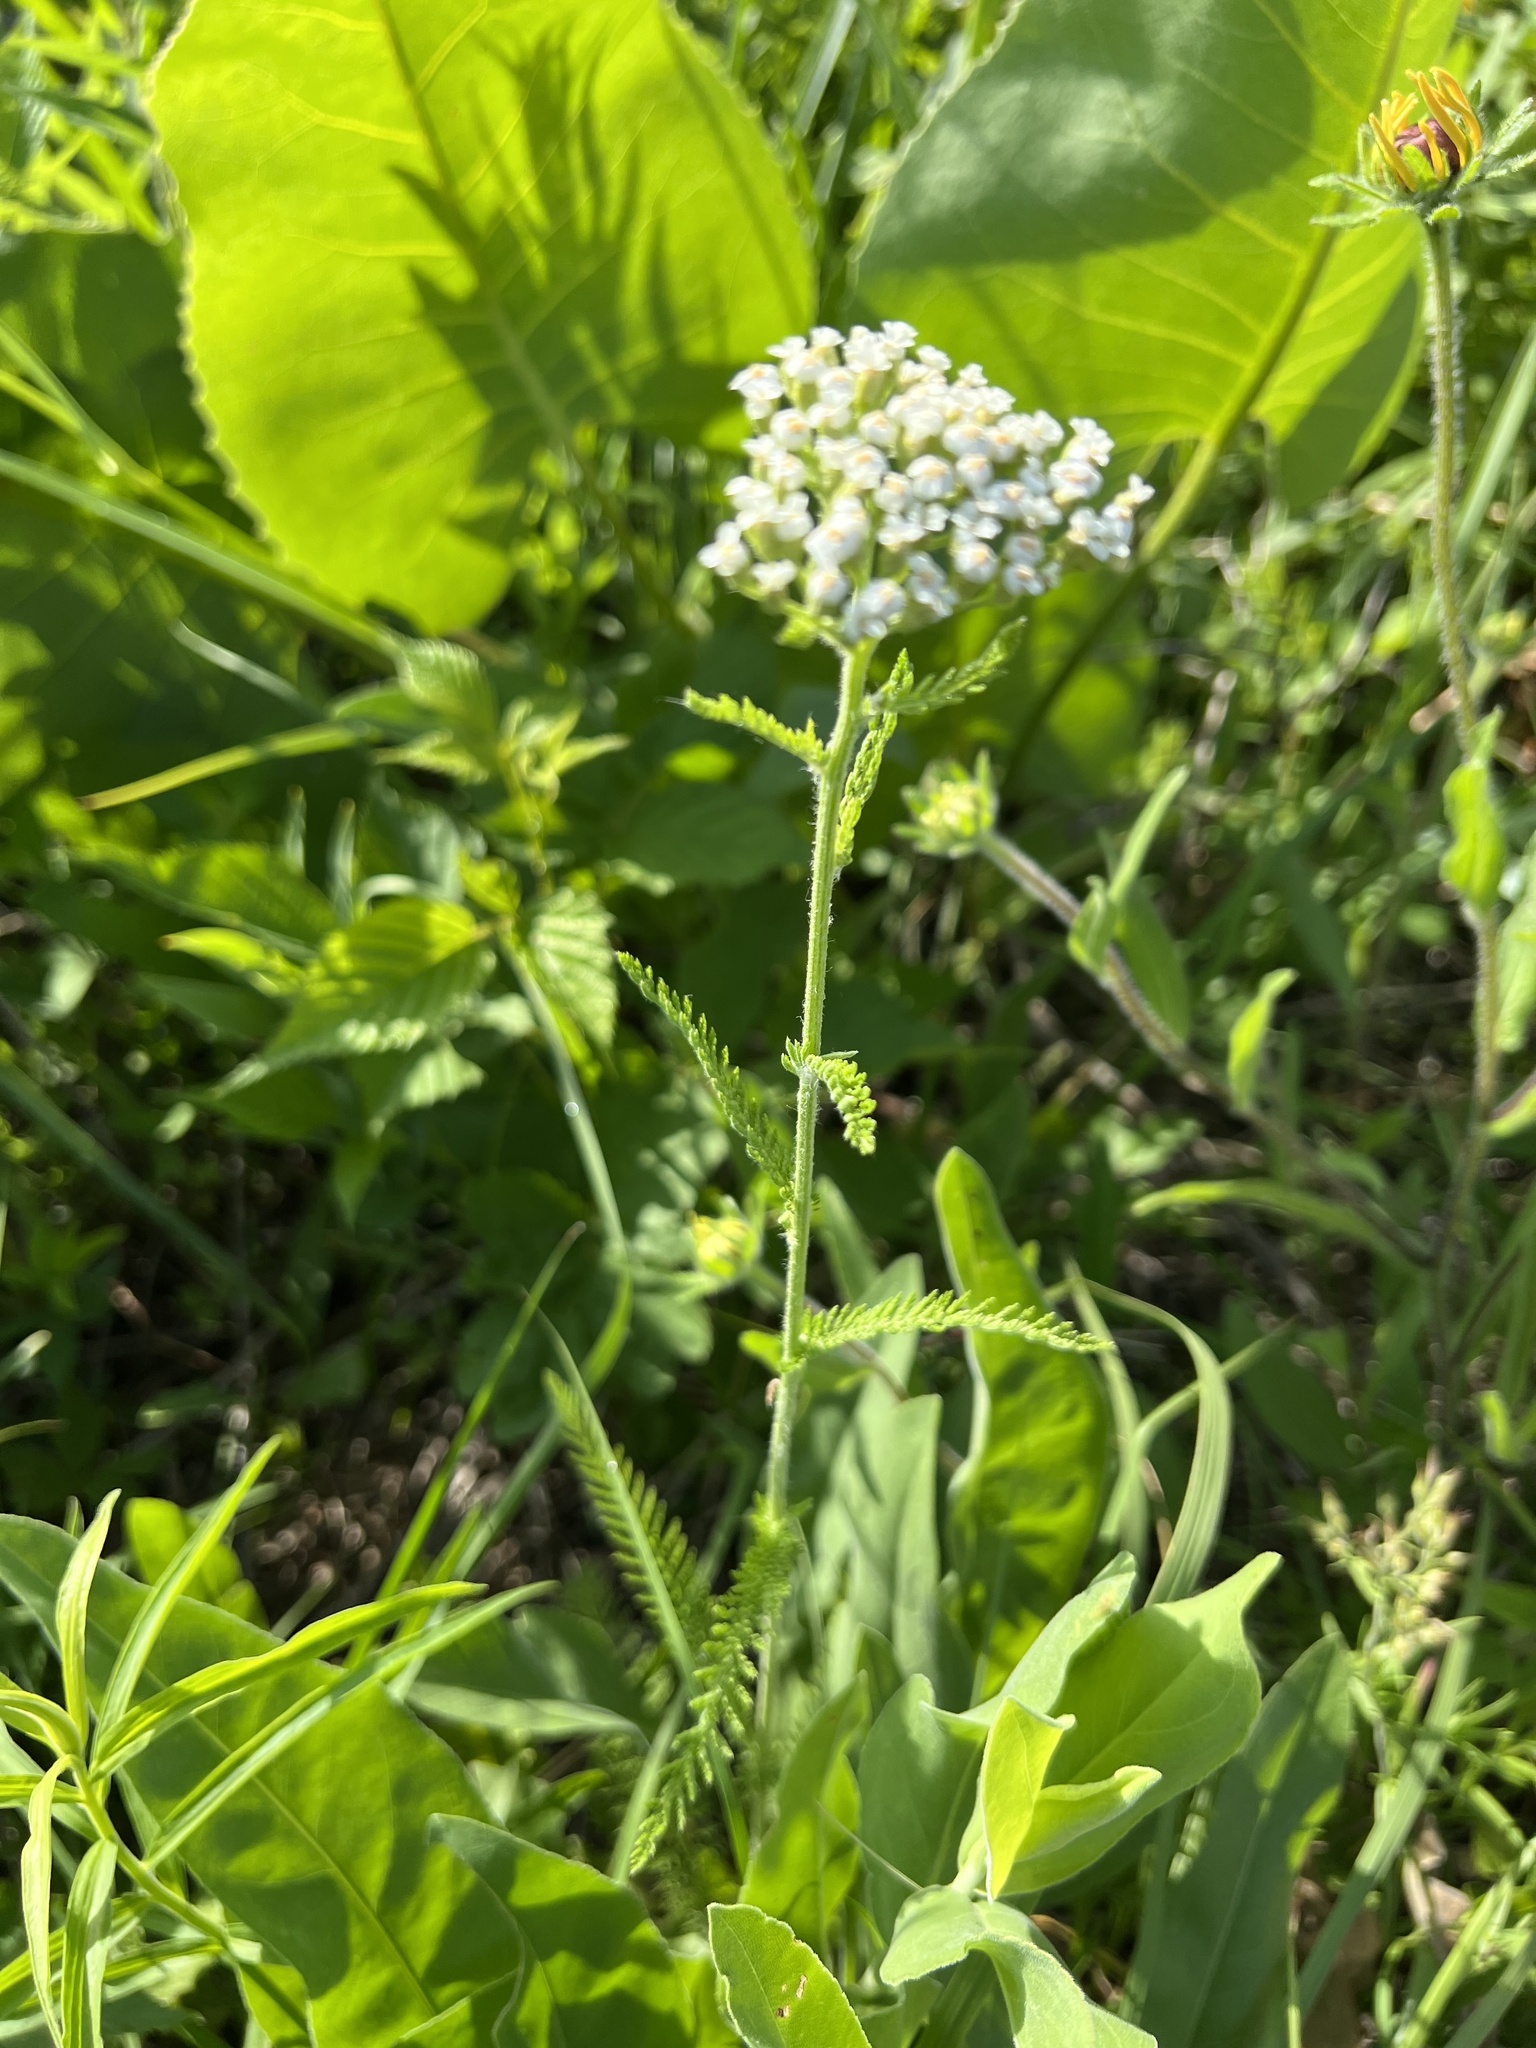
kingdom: Plantae
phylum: Tracheophyta
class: Magnoliopsida
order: Asterales
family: Asteraceae
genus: Achillea
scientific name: Achillea millefolium
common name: Yarrow
